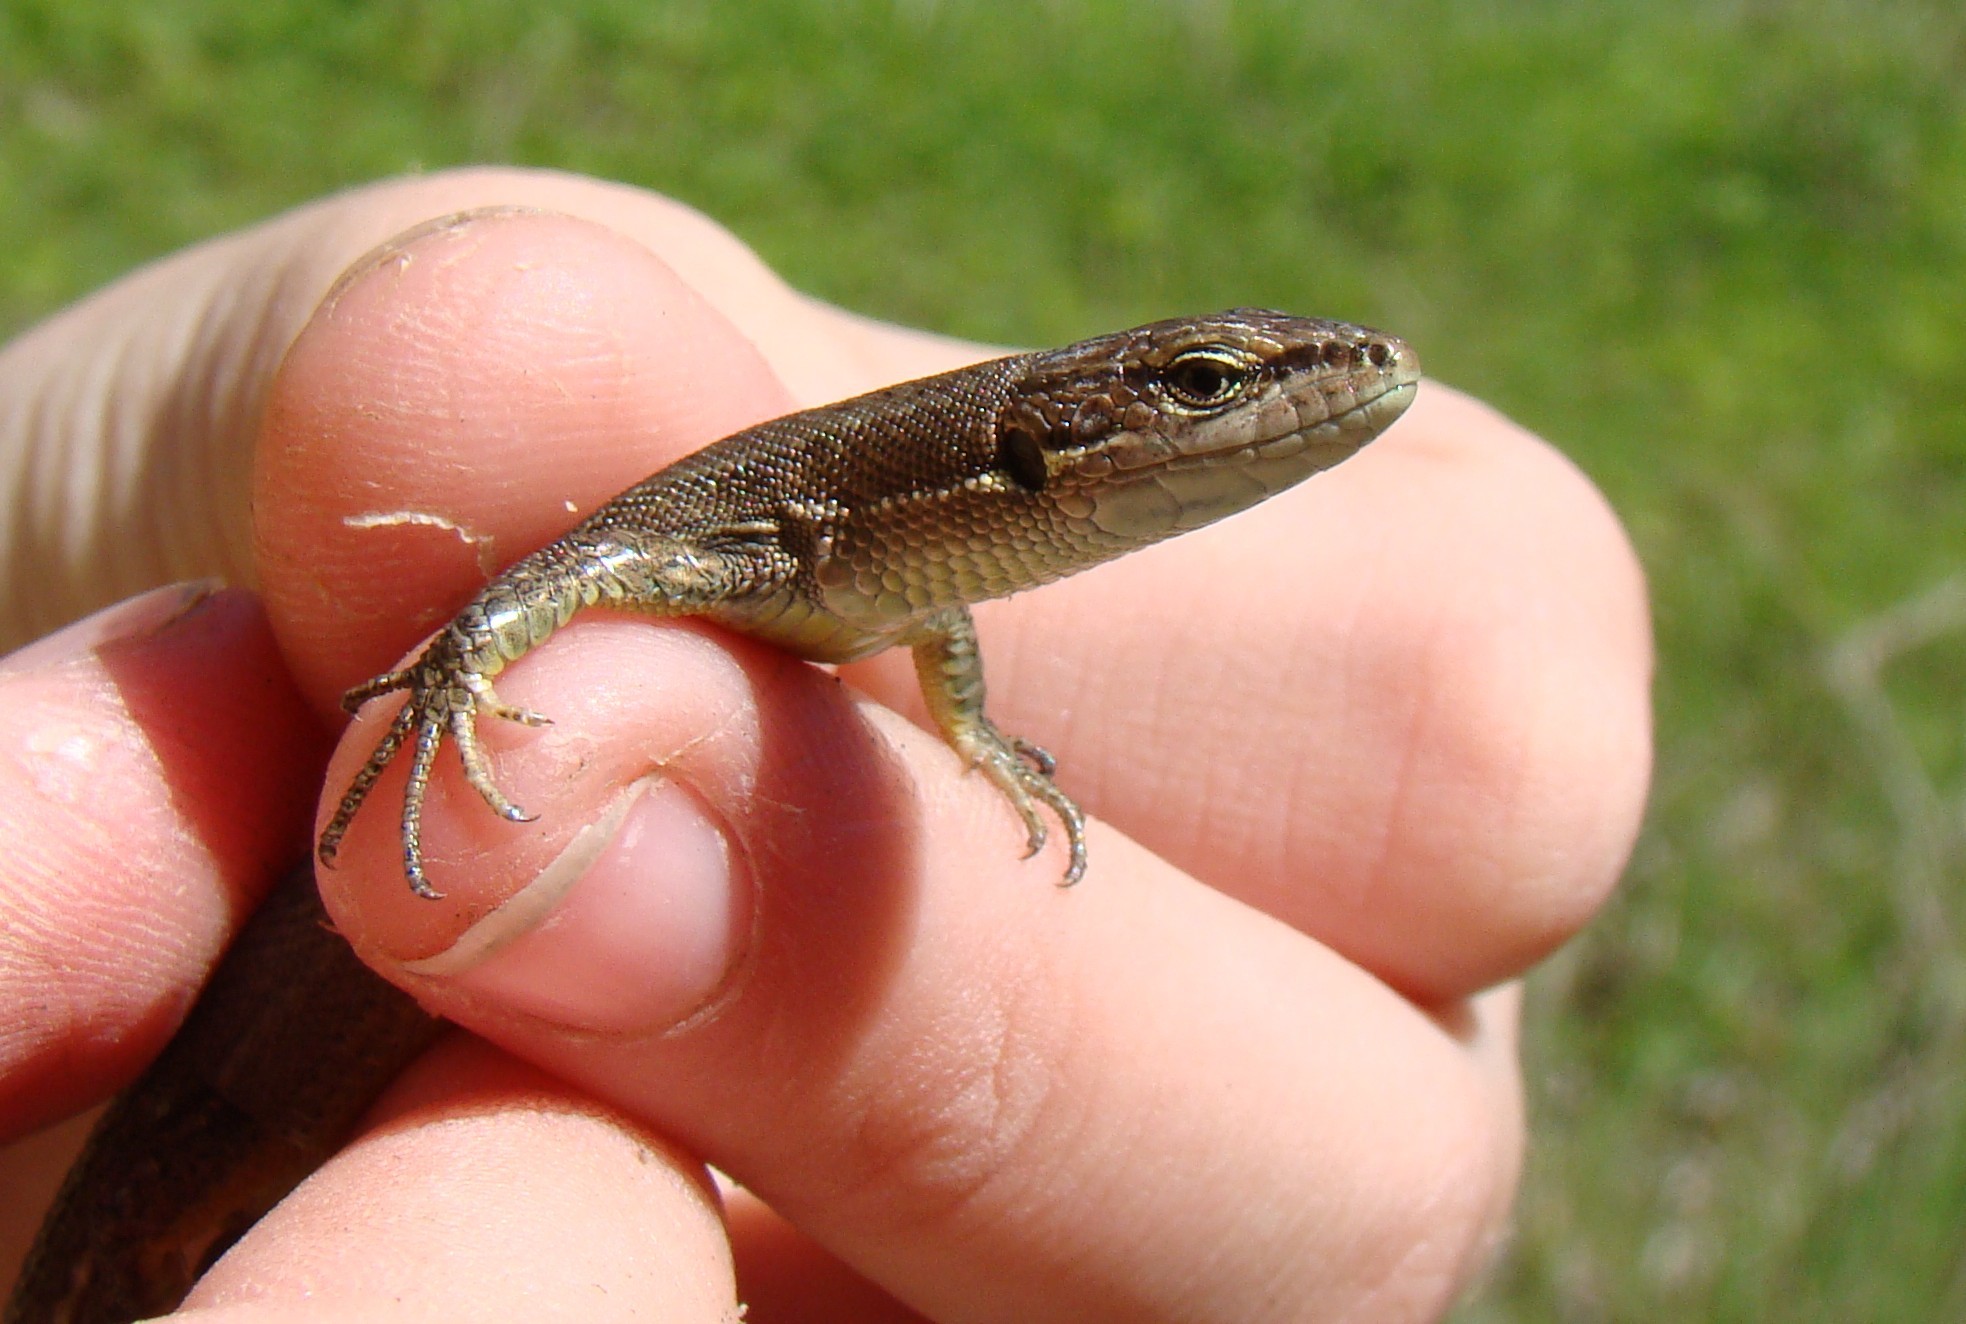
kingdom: Animalia
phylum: Chordata
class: Squamata
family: Lacertidae
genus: Darevskia
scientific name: Darevskia praticola
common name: Meadow lizard
